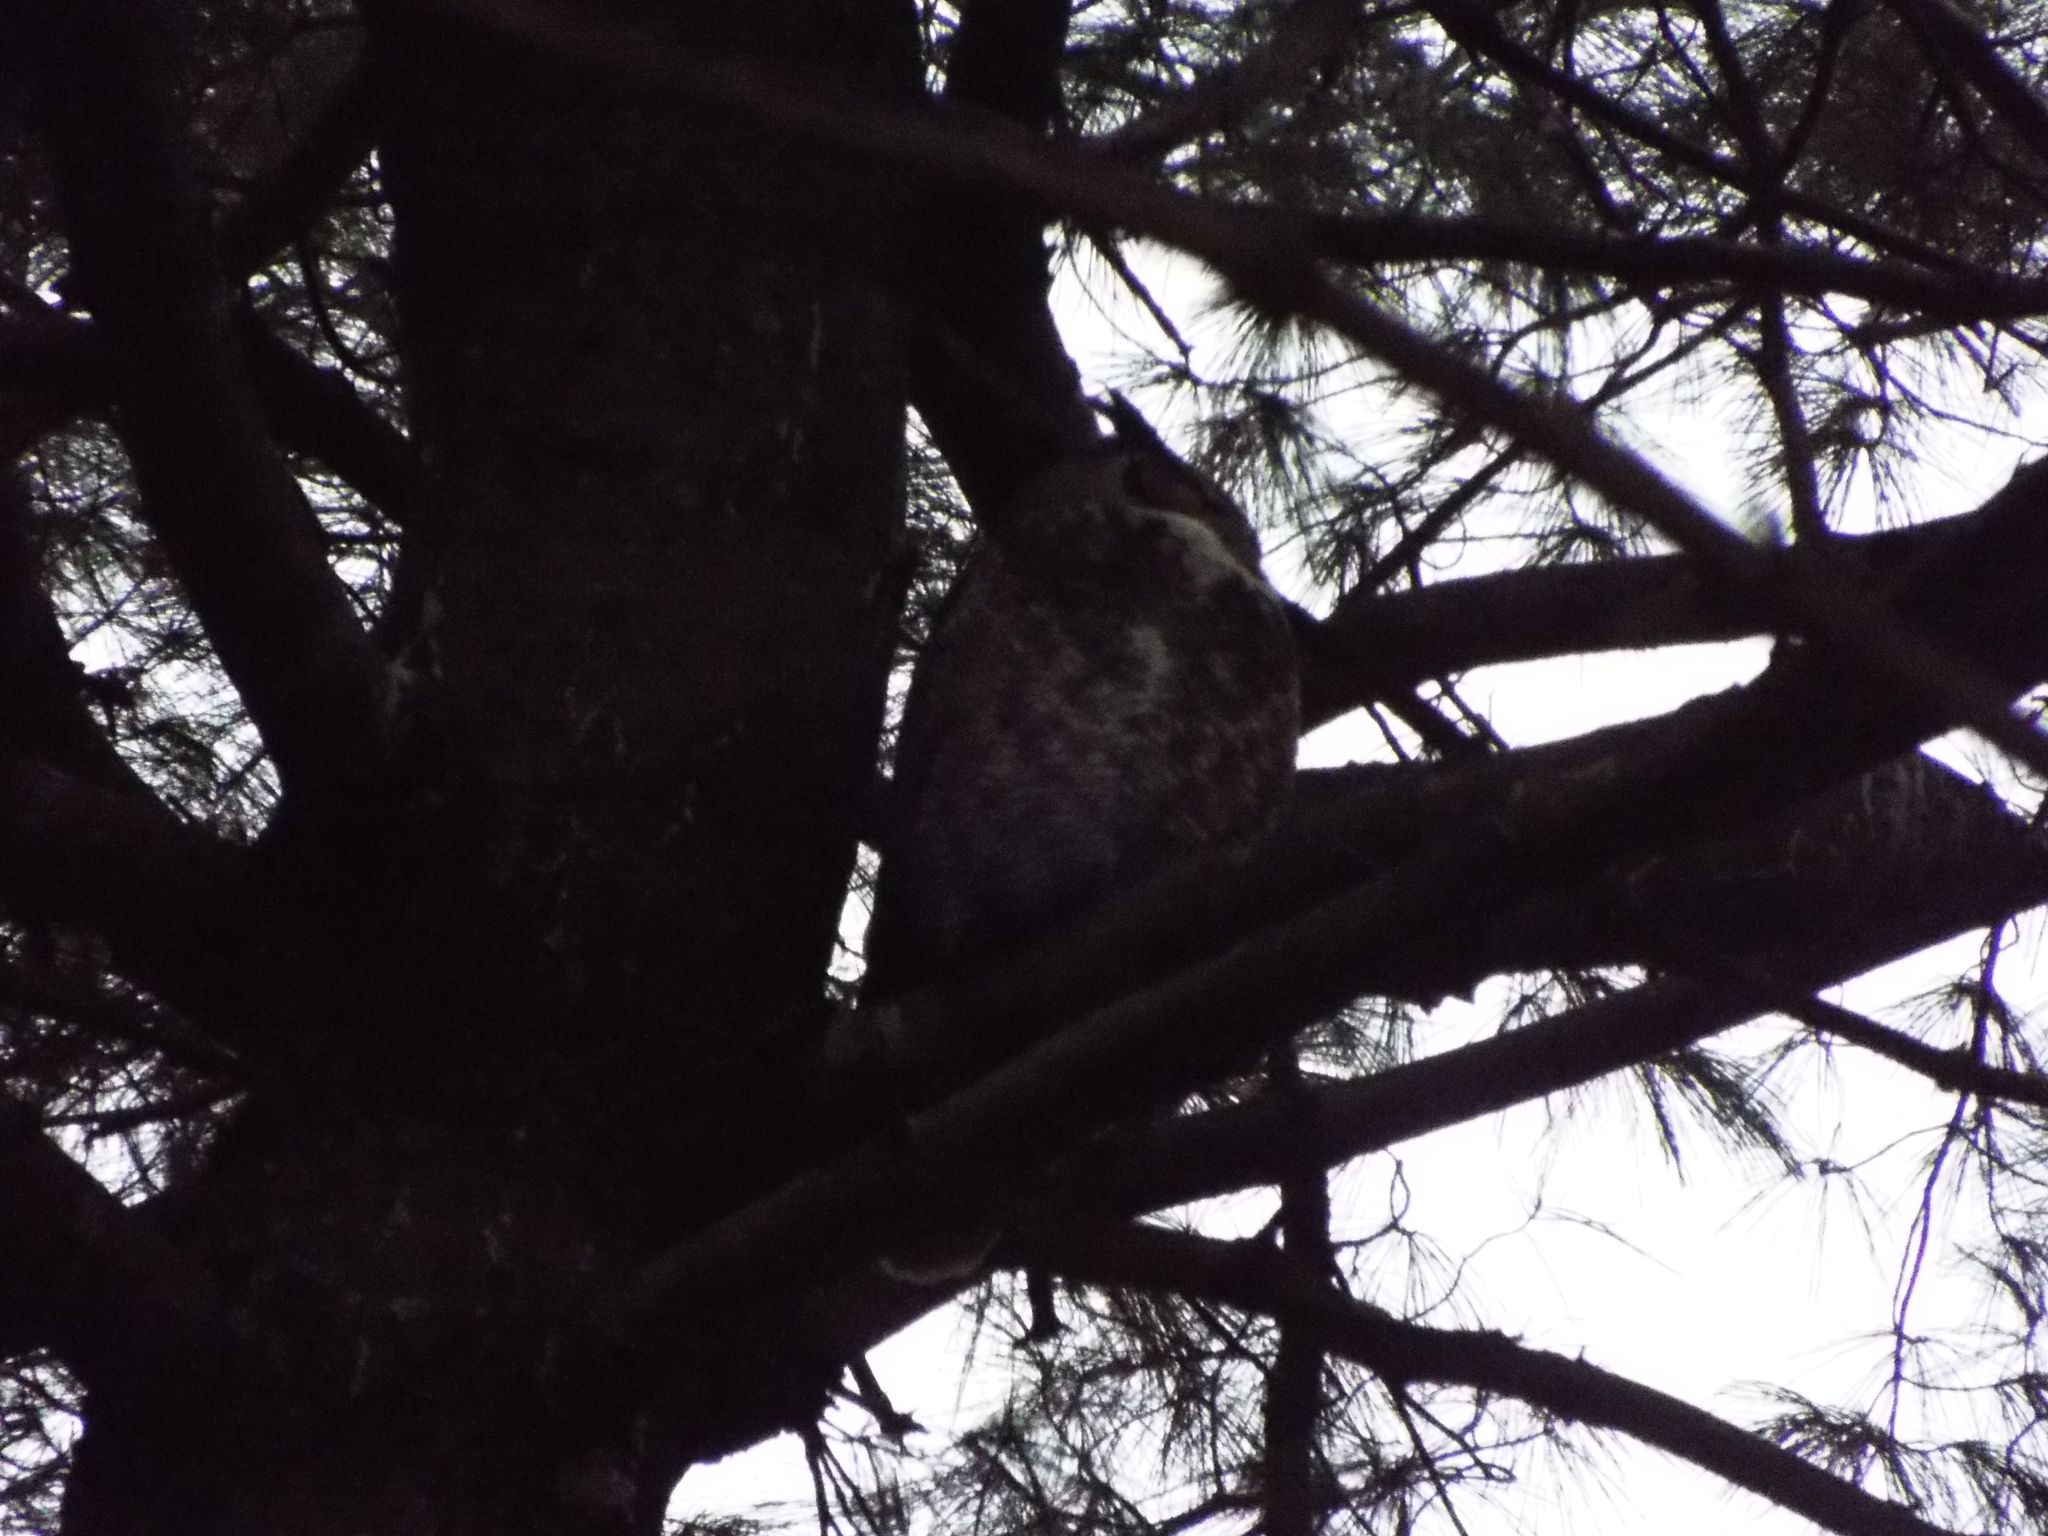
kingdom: Animalia
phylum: Chordata
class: Aves
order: Strigiformes
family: Strigidae
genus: Bubo
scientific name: Bubo virginianus
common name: Great horned owl
